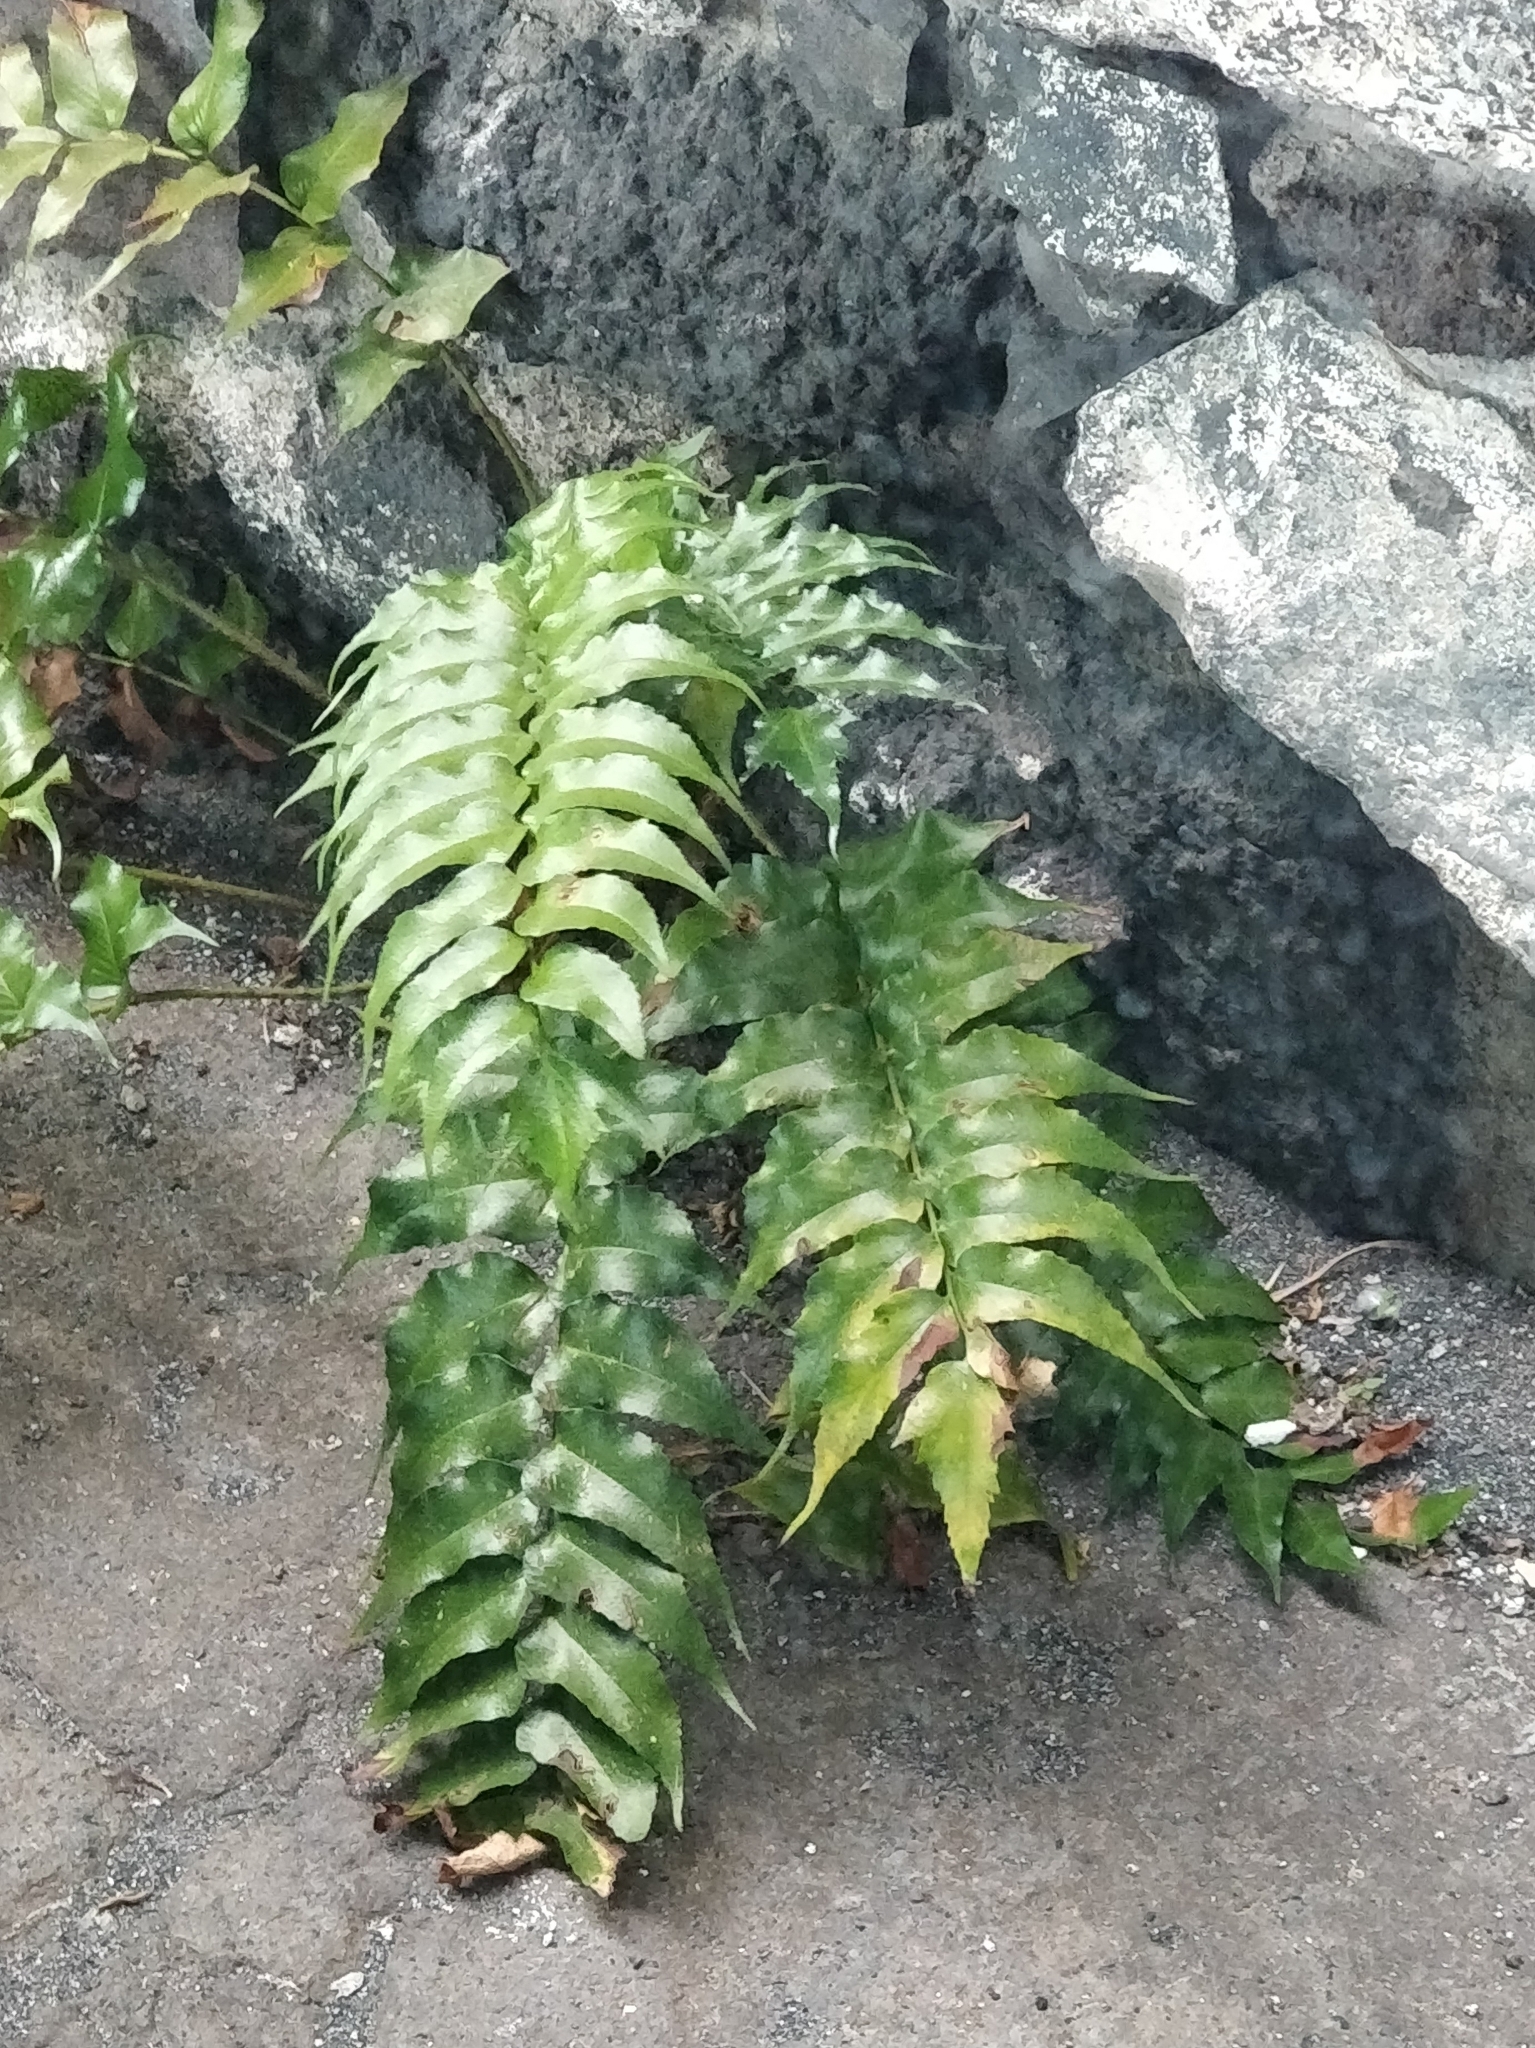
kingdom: Plantae
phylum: Tracheophyta
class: Polypodiopsida
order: Polypodiales
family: Dryopteridaceae
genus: Cyrtomium
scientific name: Cyrtomium falcatum
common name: House holly-fern
